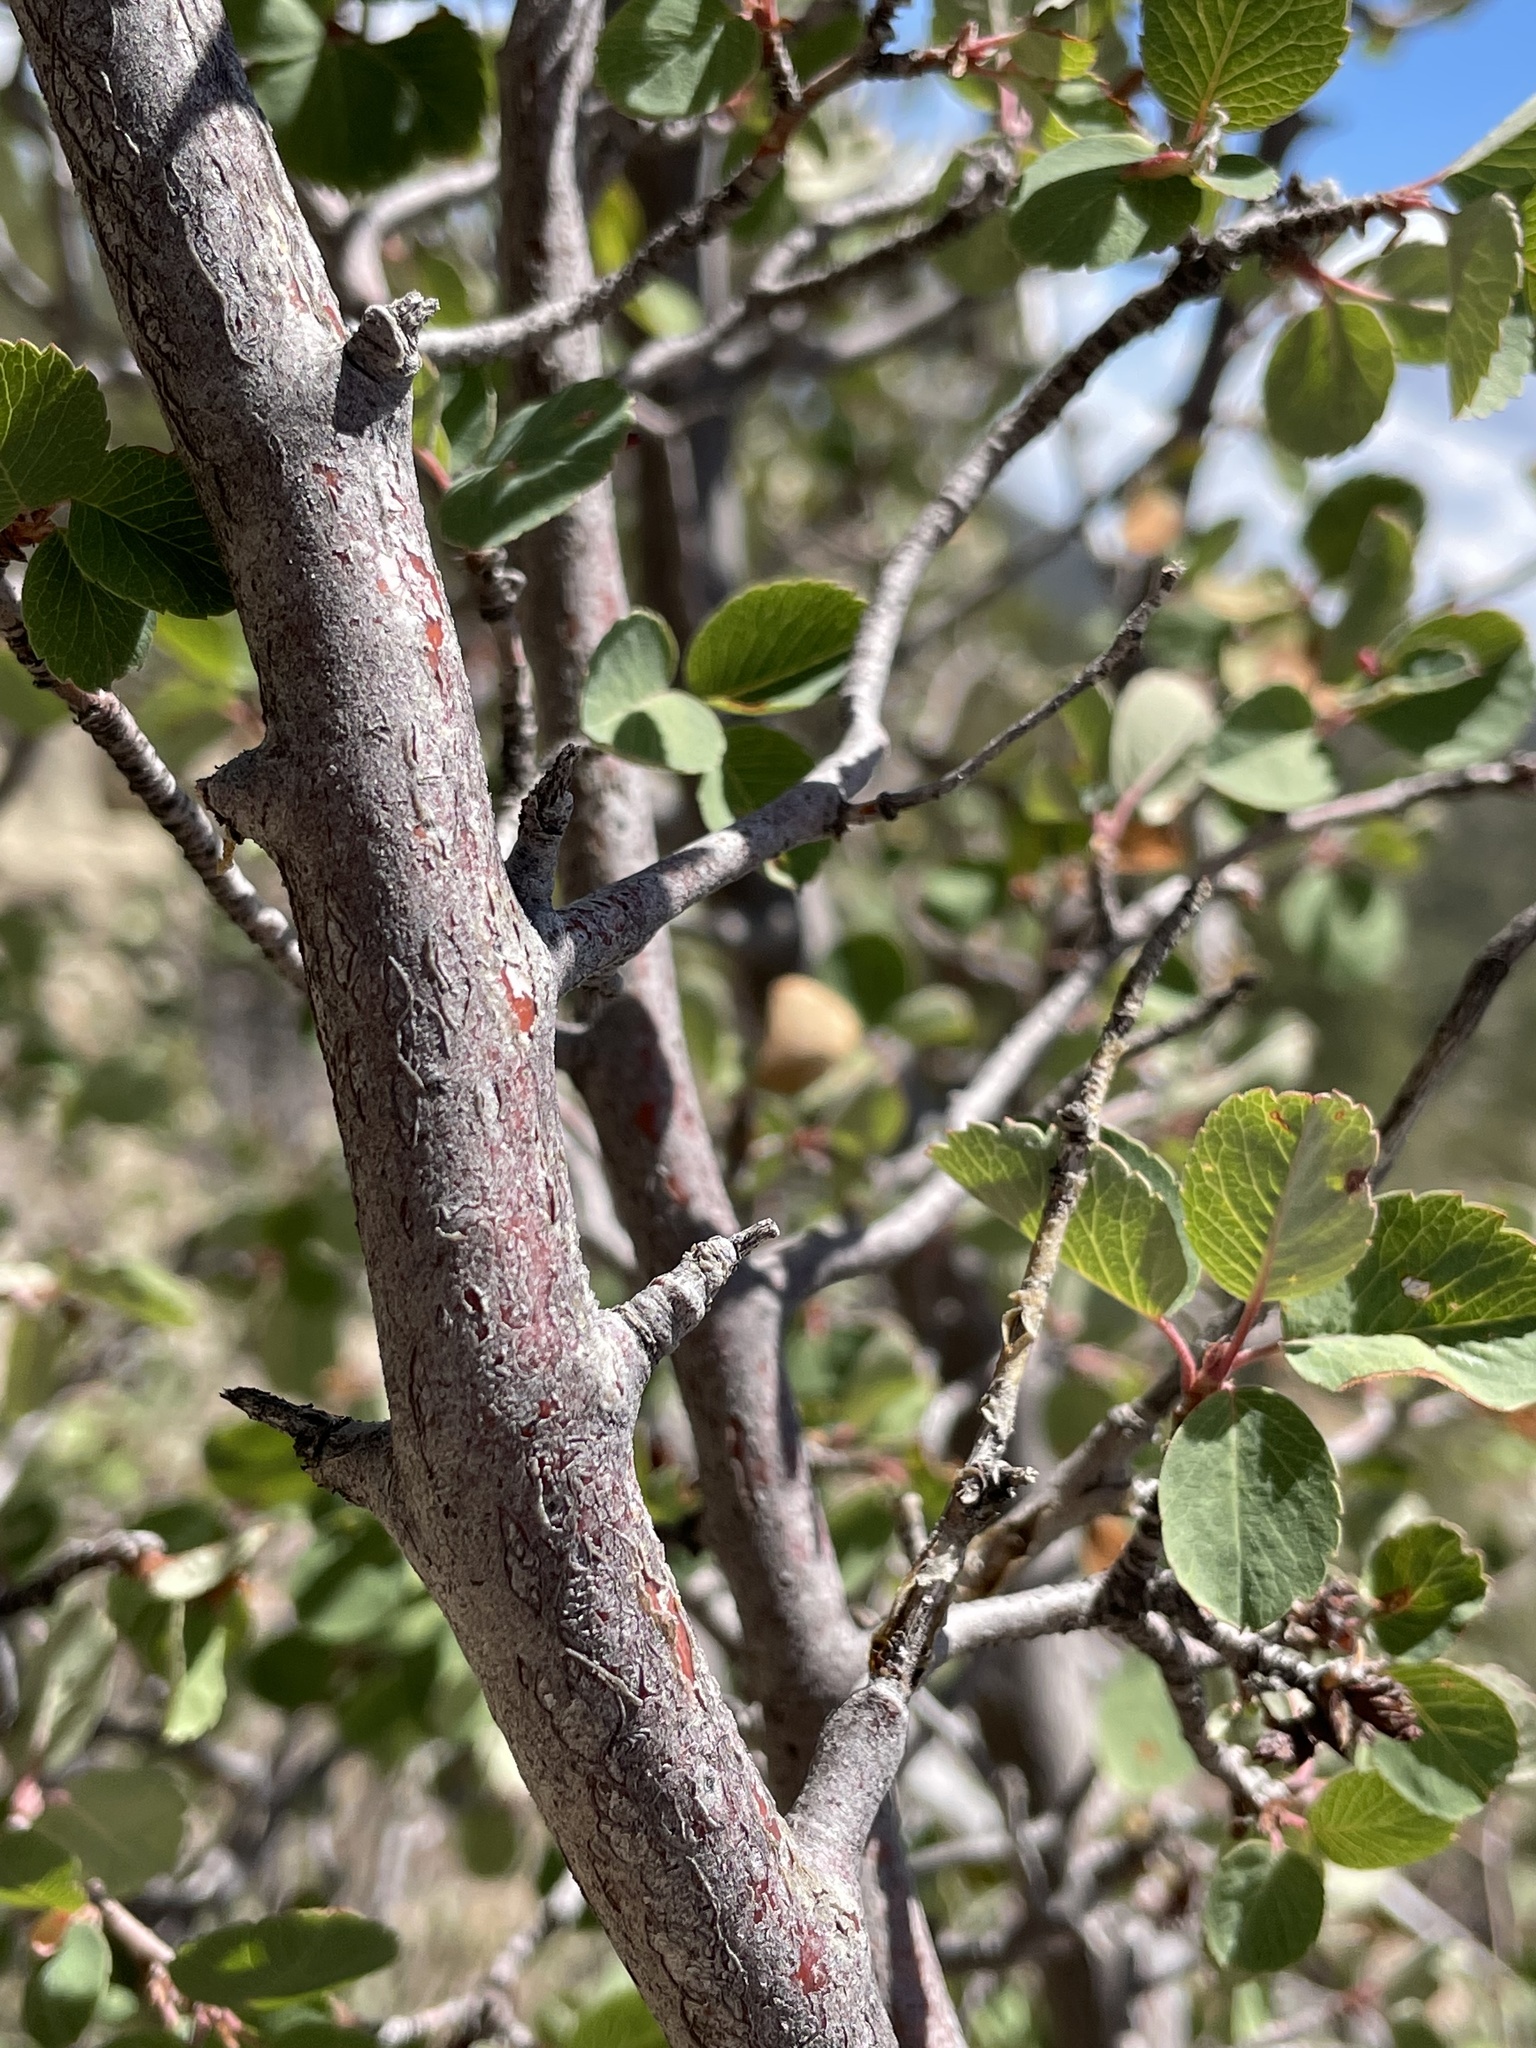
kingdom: Plantae
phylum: Tracheophyta
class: Magnoliopsida
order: Rosales
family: Rosaceae
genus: Amelanchier
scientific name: Amelanchier utahensis
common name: Utah serviceberry
